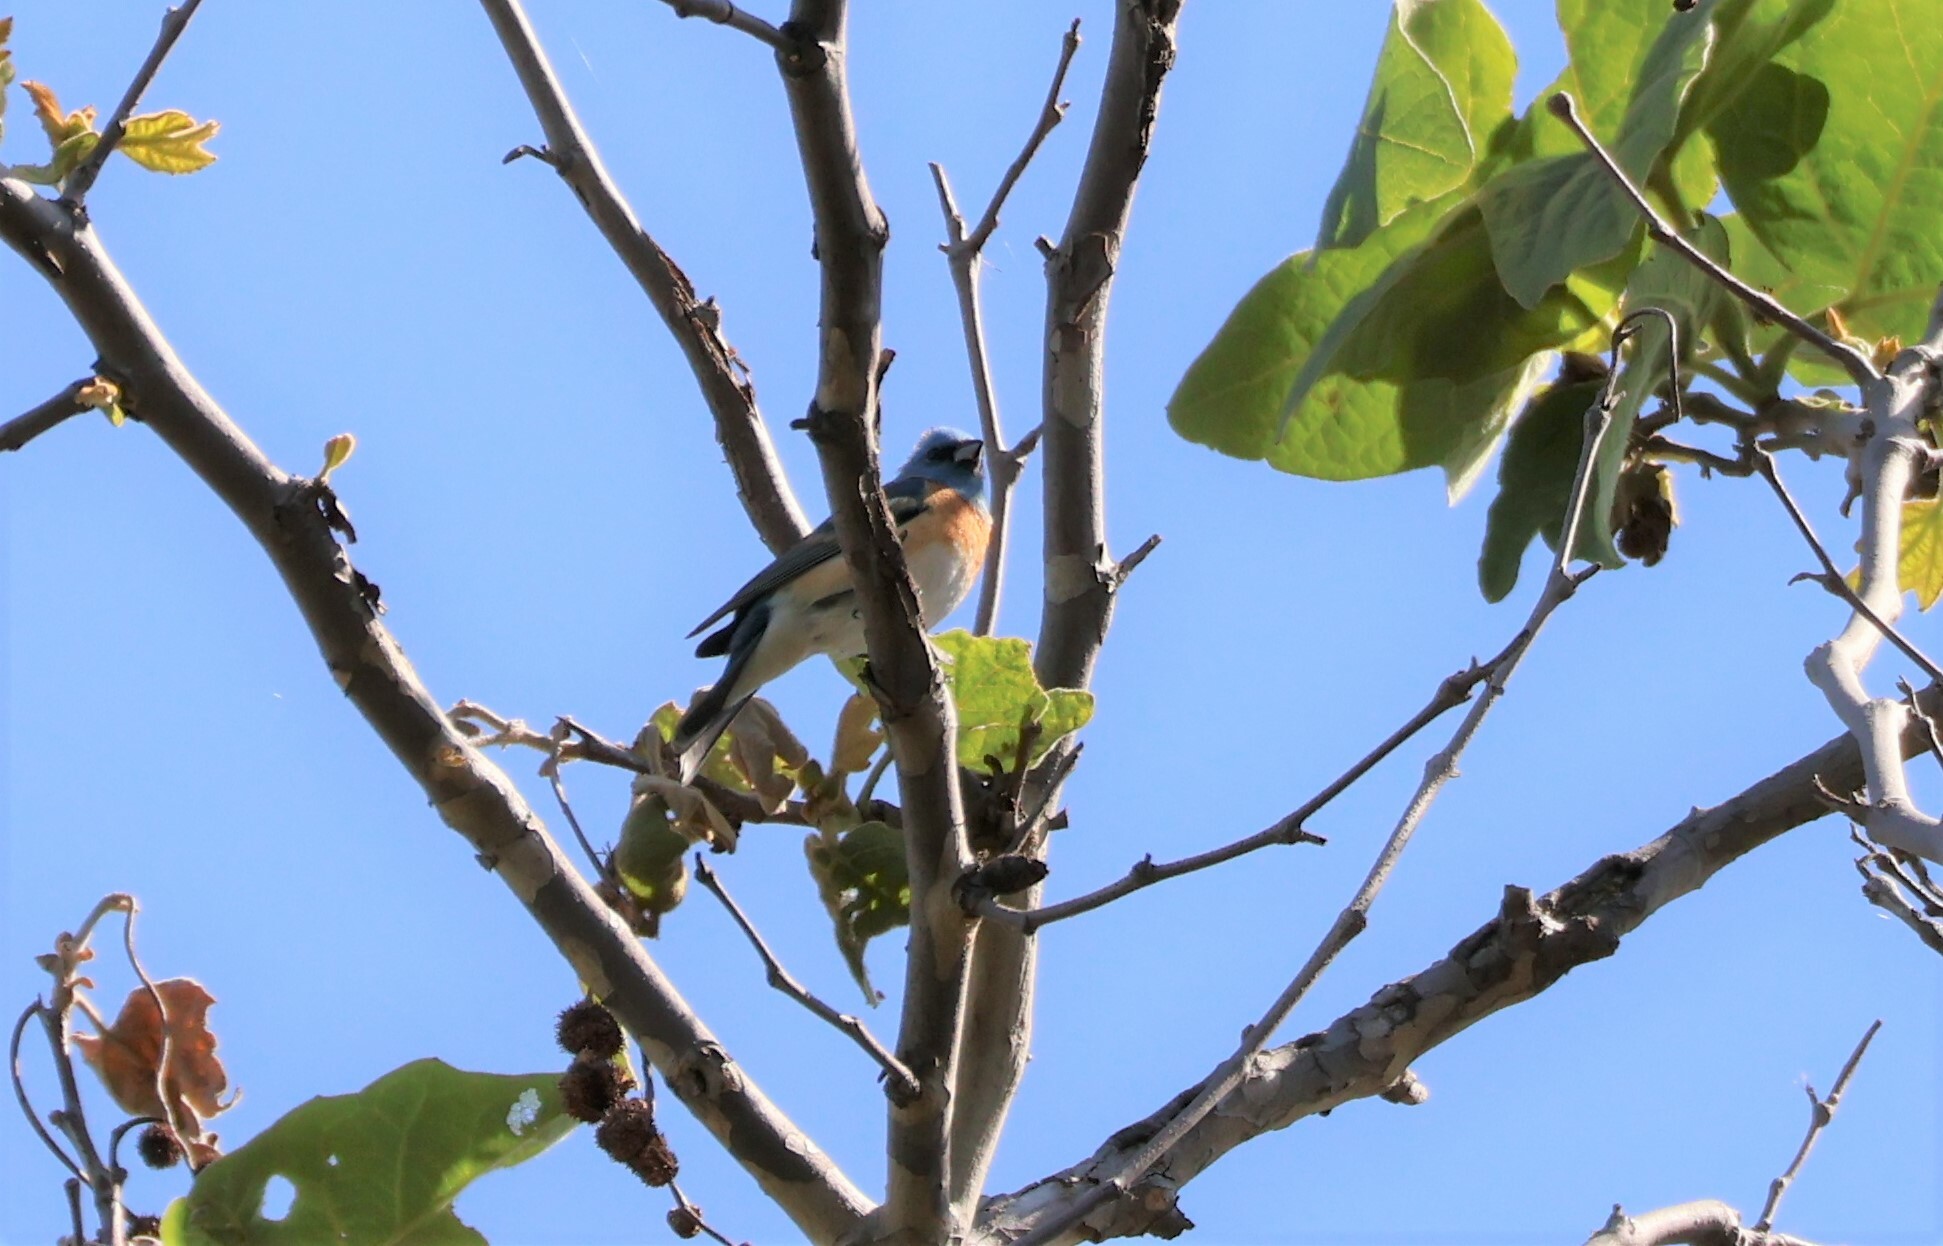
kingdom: Animalia
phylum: Chordata
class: Aves
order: Passeriformes
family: Cardinalidae
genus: Passerina
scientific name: Passerina amoena
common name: Lazuli bunting
